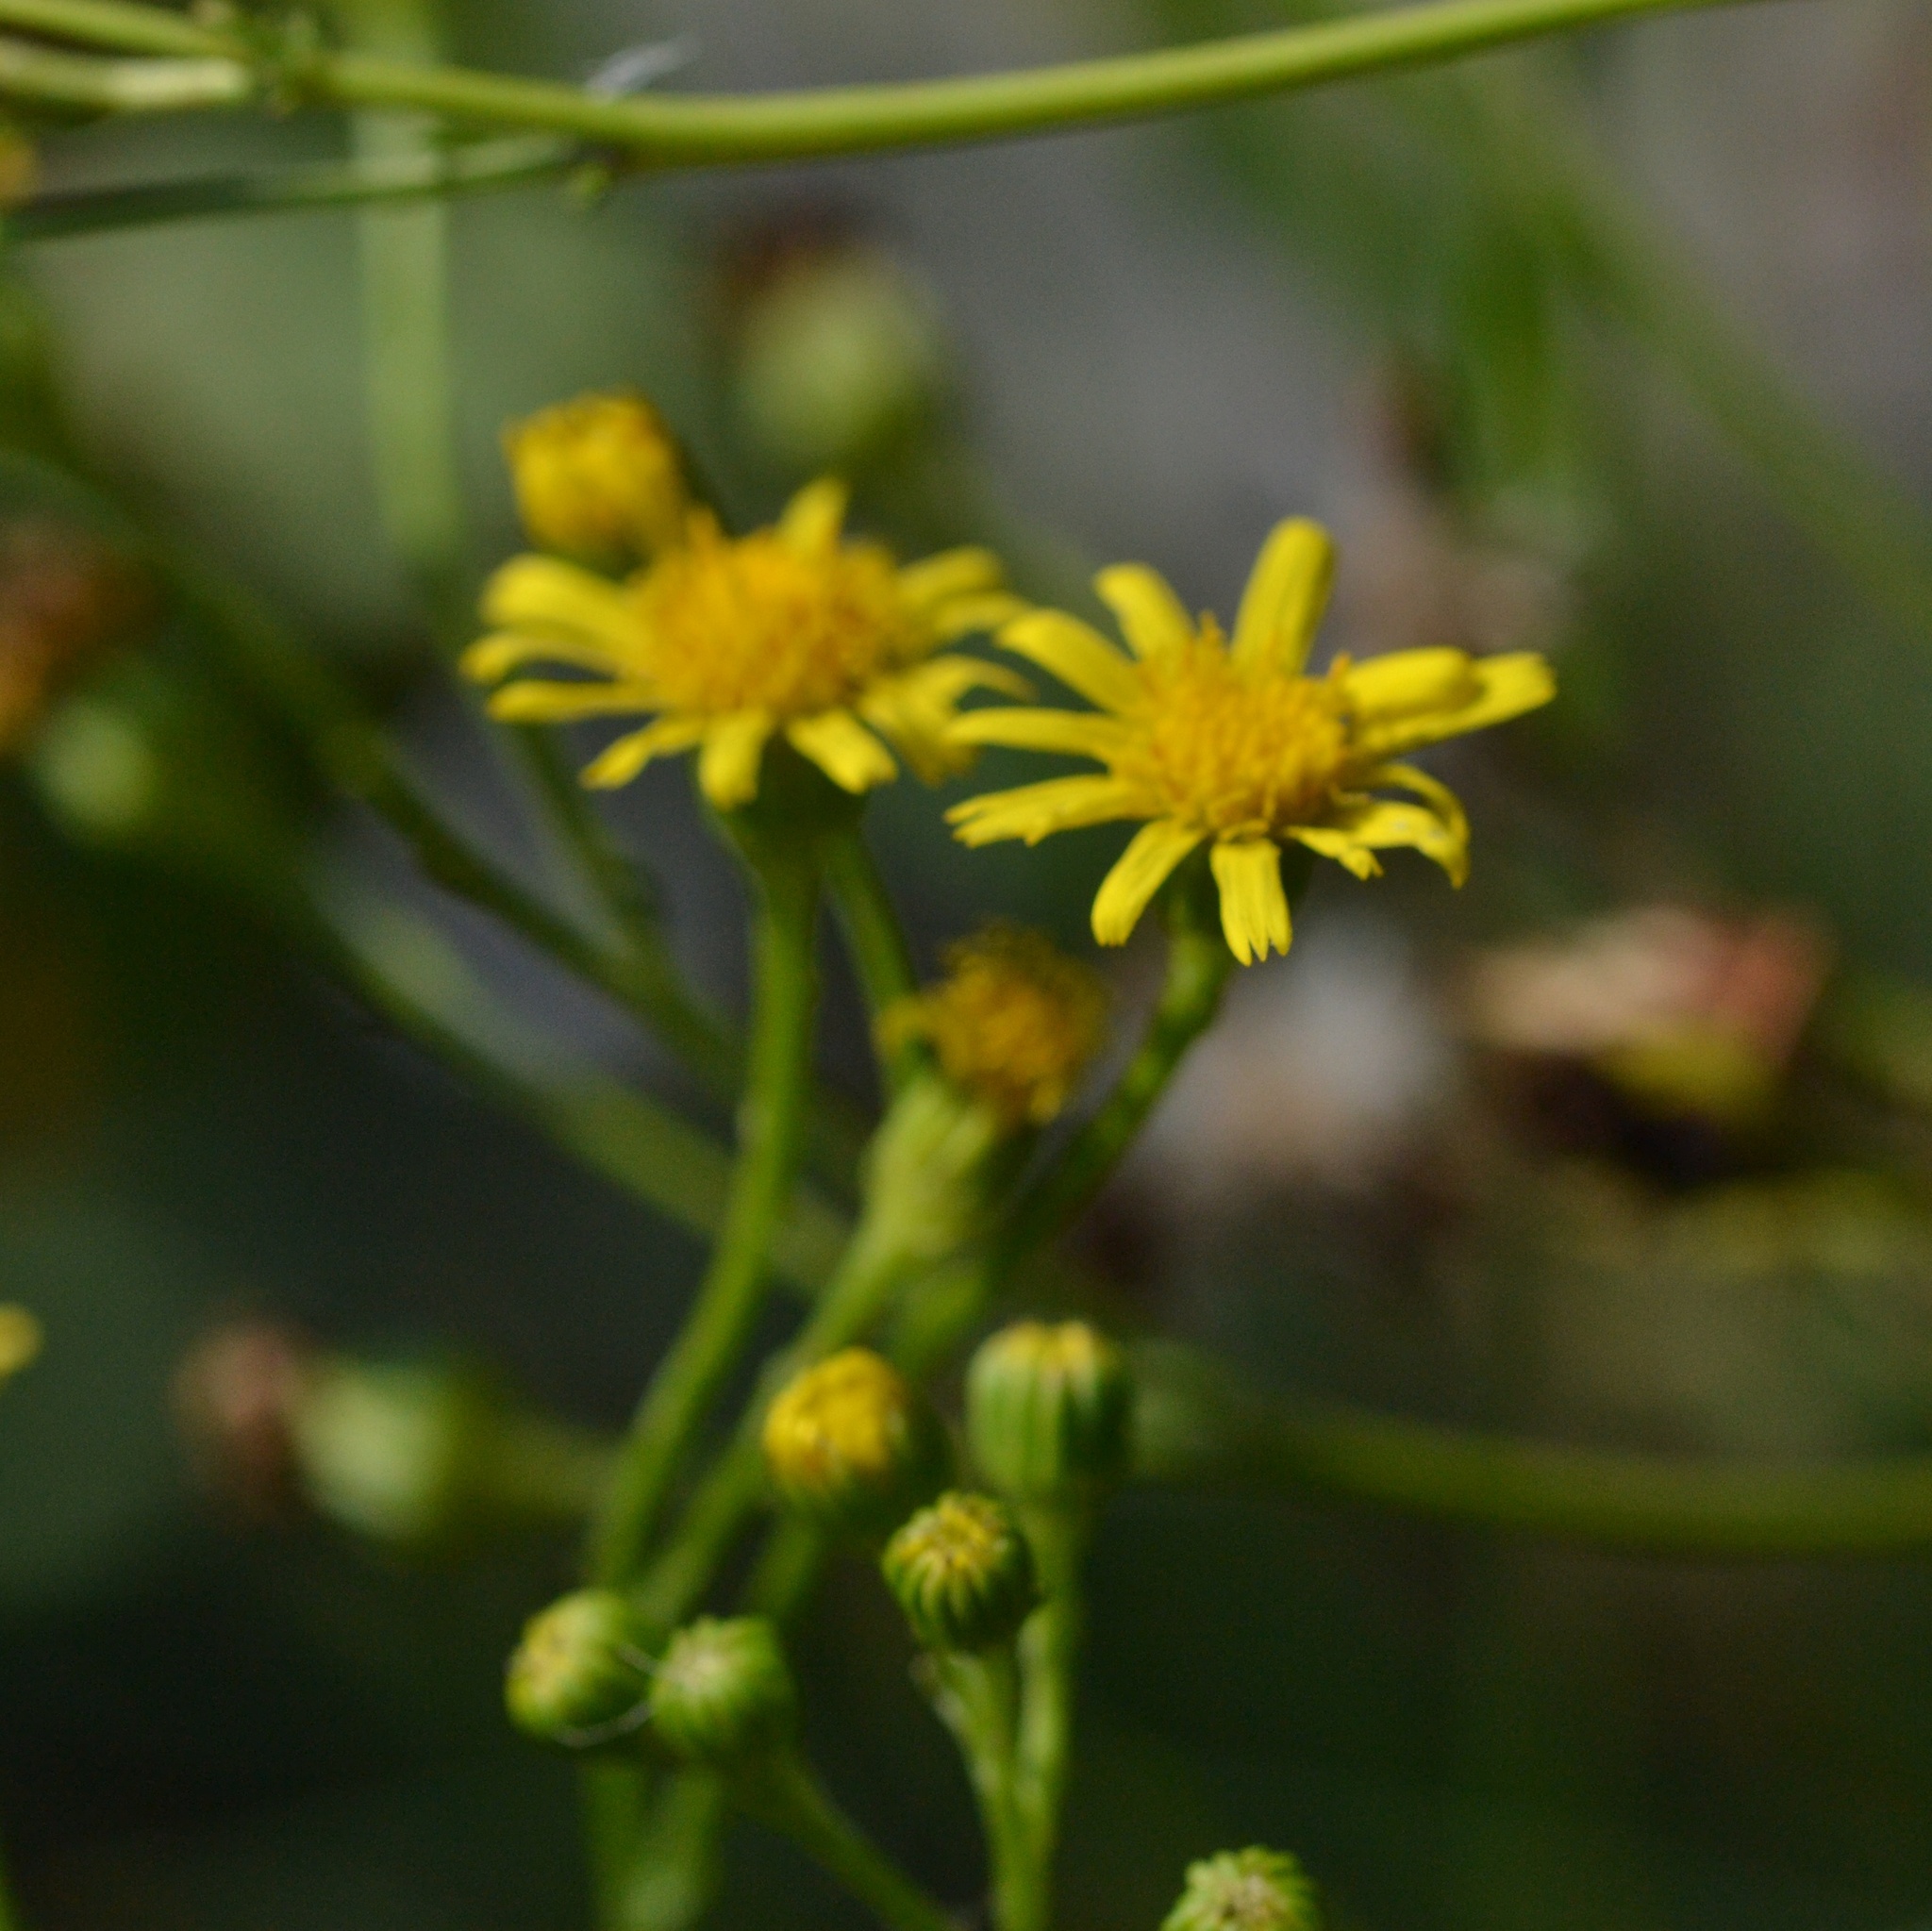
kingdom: Plantae
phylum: Tracheophyta
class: Magnoliopsida
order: Asterales
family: Asteraceae
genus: Jacobaea
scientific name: Jacobaea vulgaris
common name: Stinking willie
